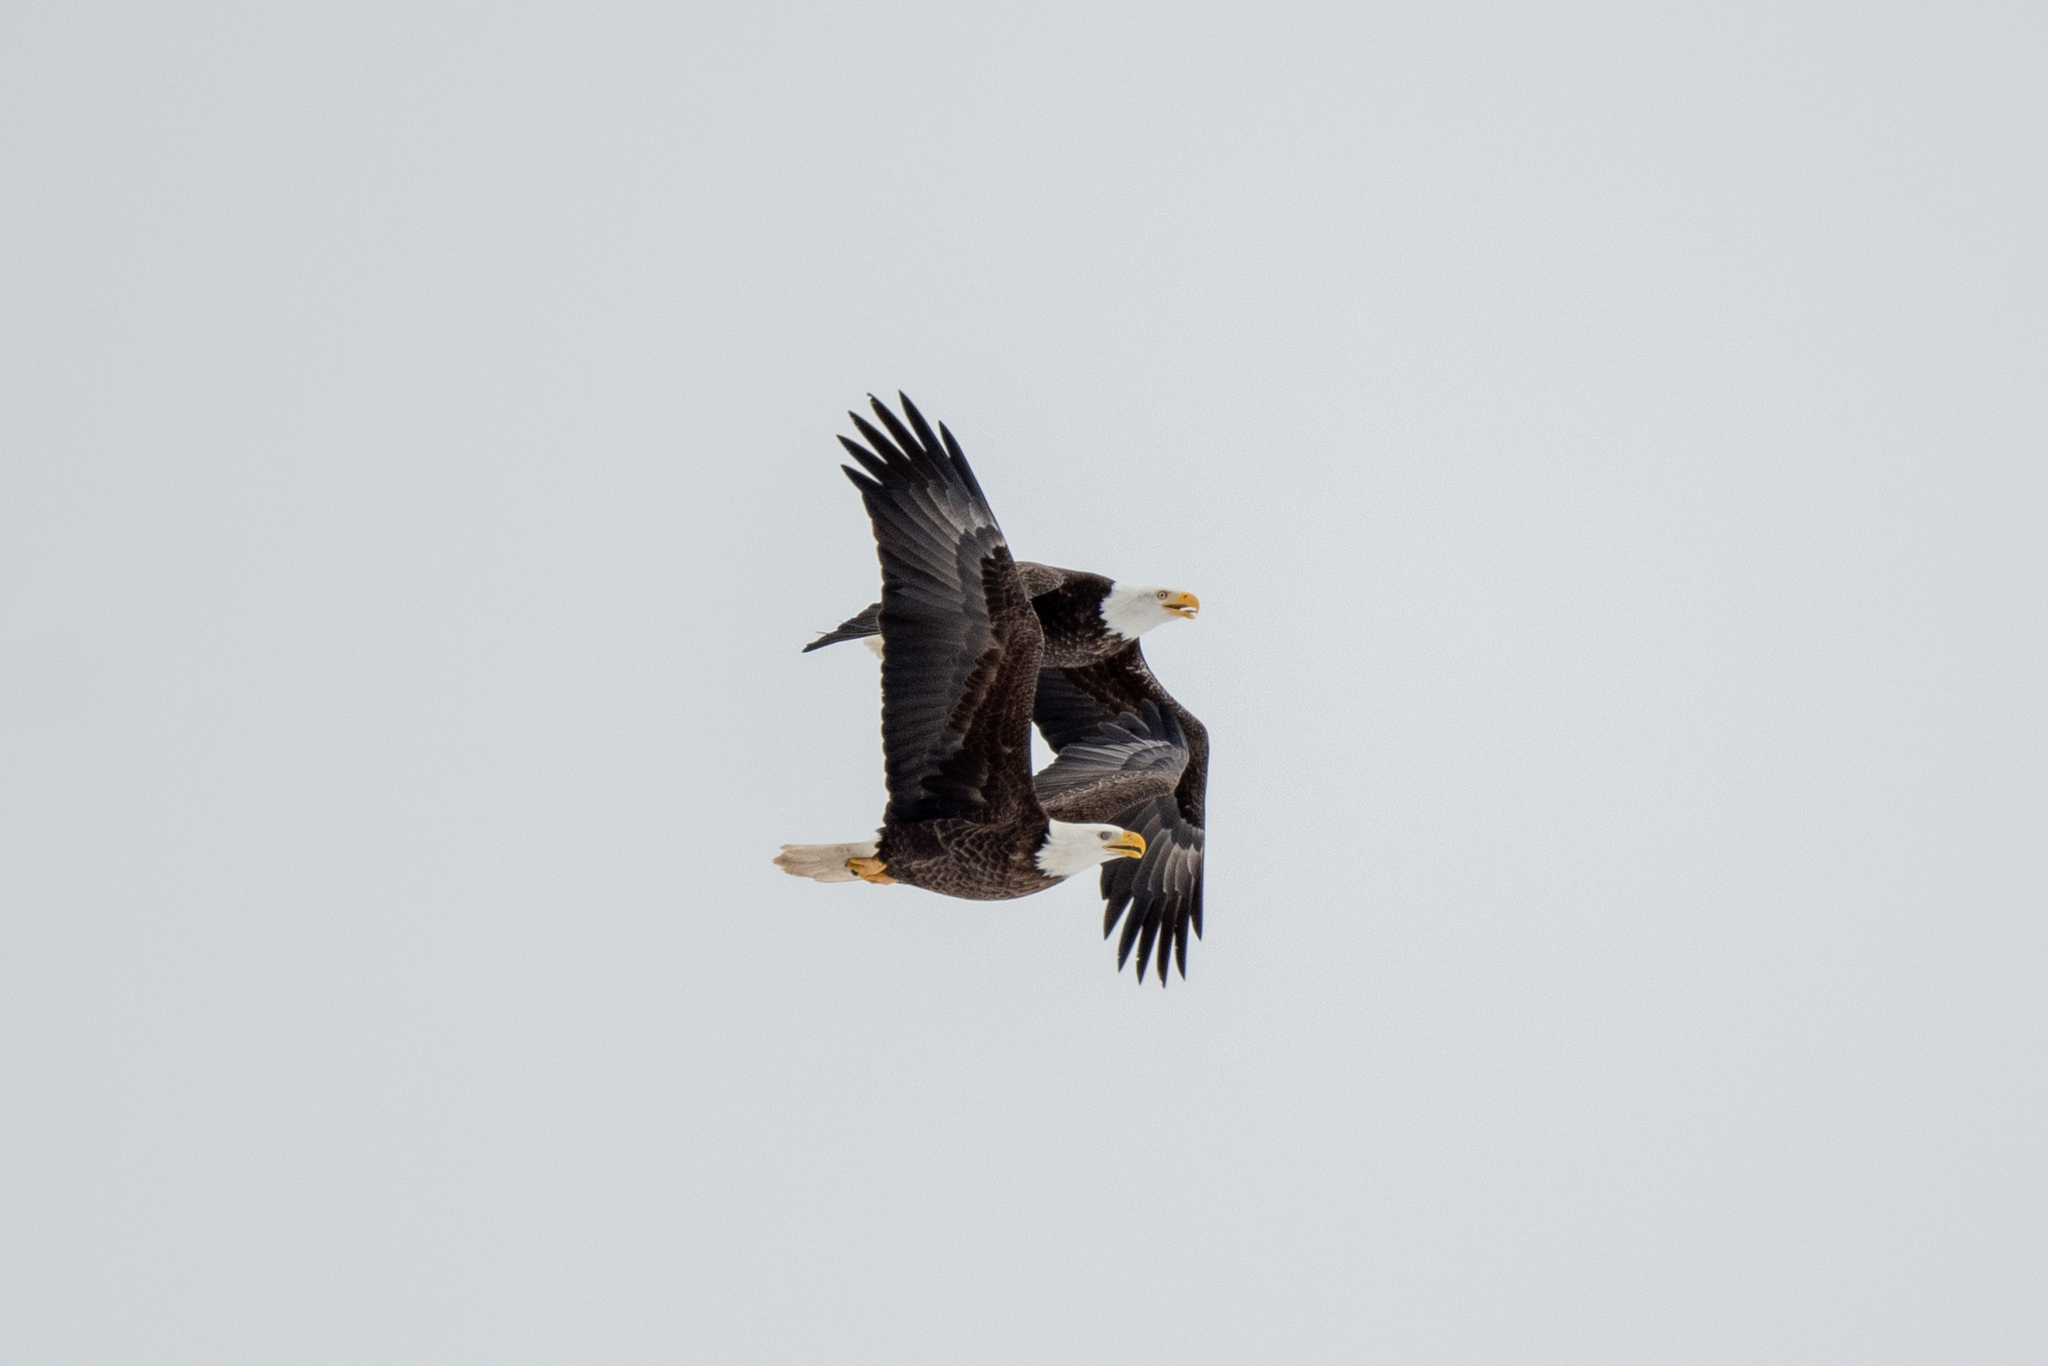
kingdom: Animalia
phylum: Chordata
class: Aves
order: Accipitriformes
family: Accipitridae
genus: Haliaeetus
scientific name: Haliaeetus leucocephalus
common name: Bald eagle
